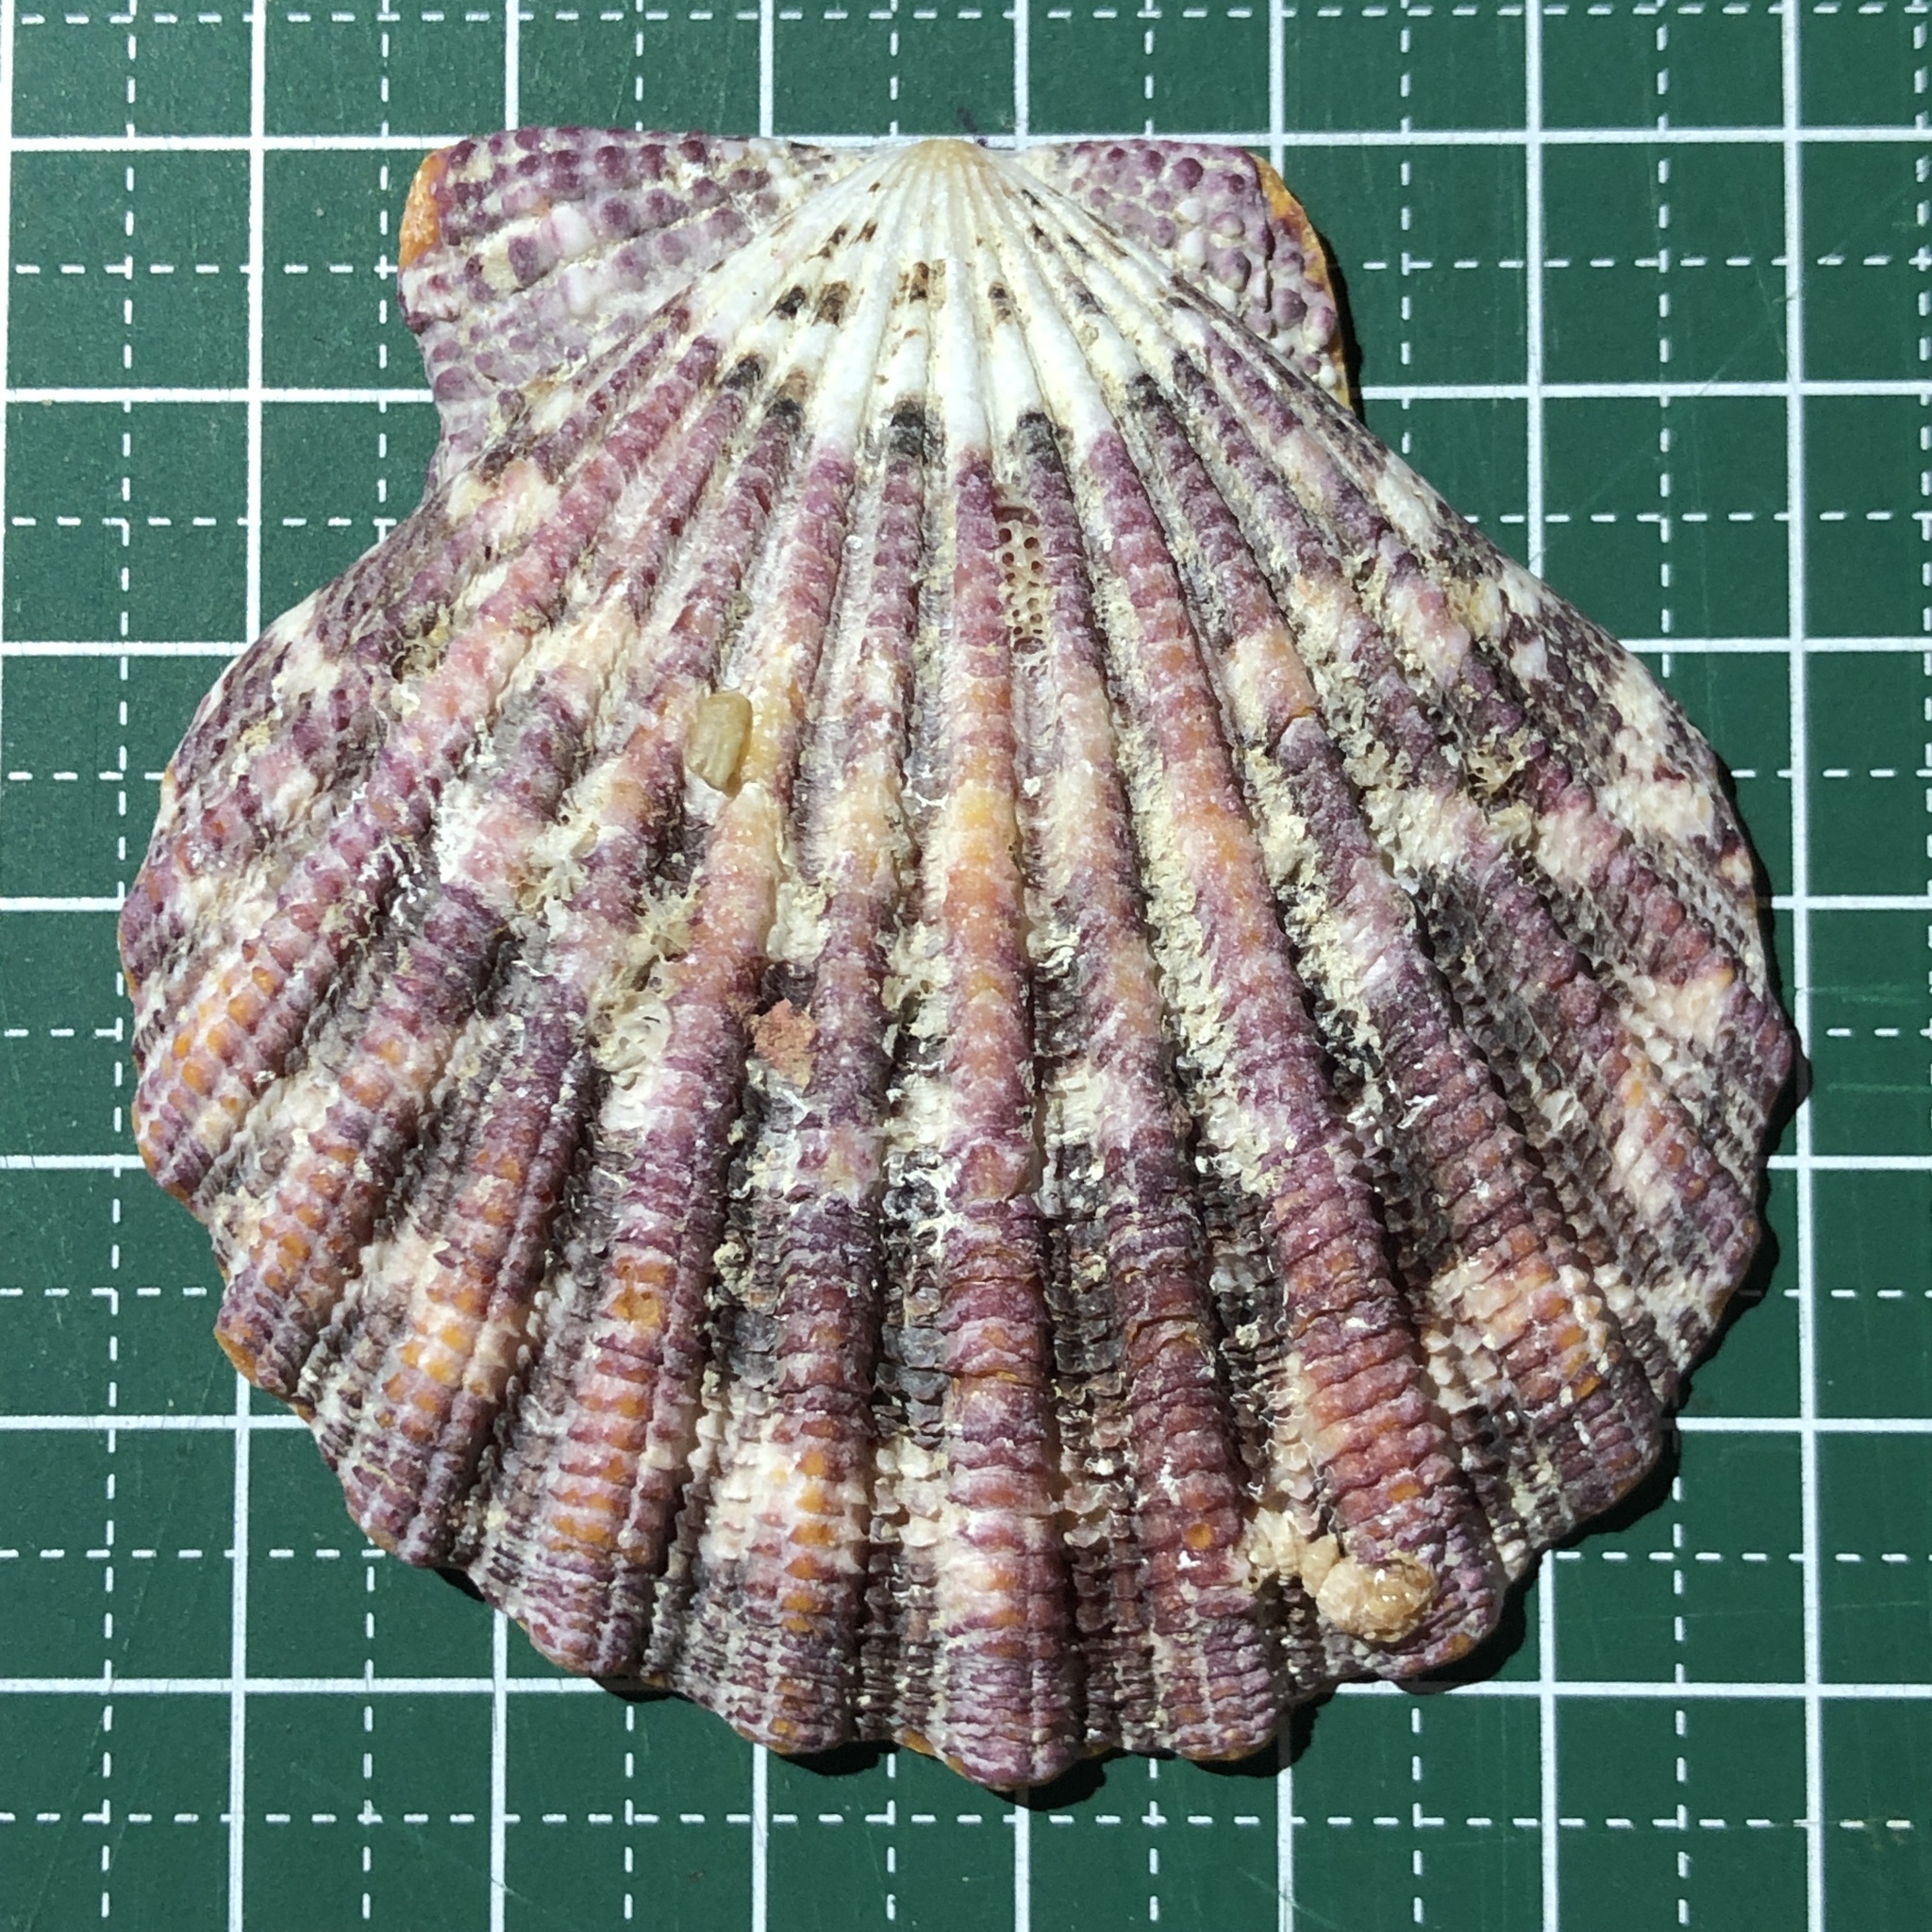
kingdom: Animalia
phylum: Mollusca
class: Bivalvia
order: Pectinida
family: Pectinidae
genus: Gloripallium
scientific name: Gloripallium pallium
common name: Royal cloak scallop
